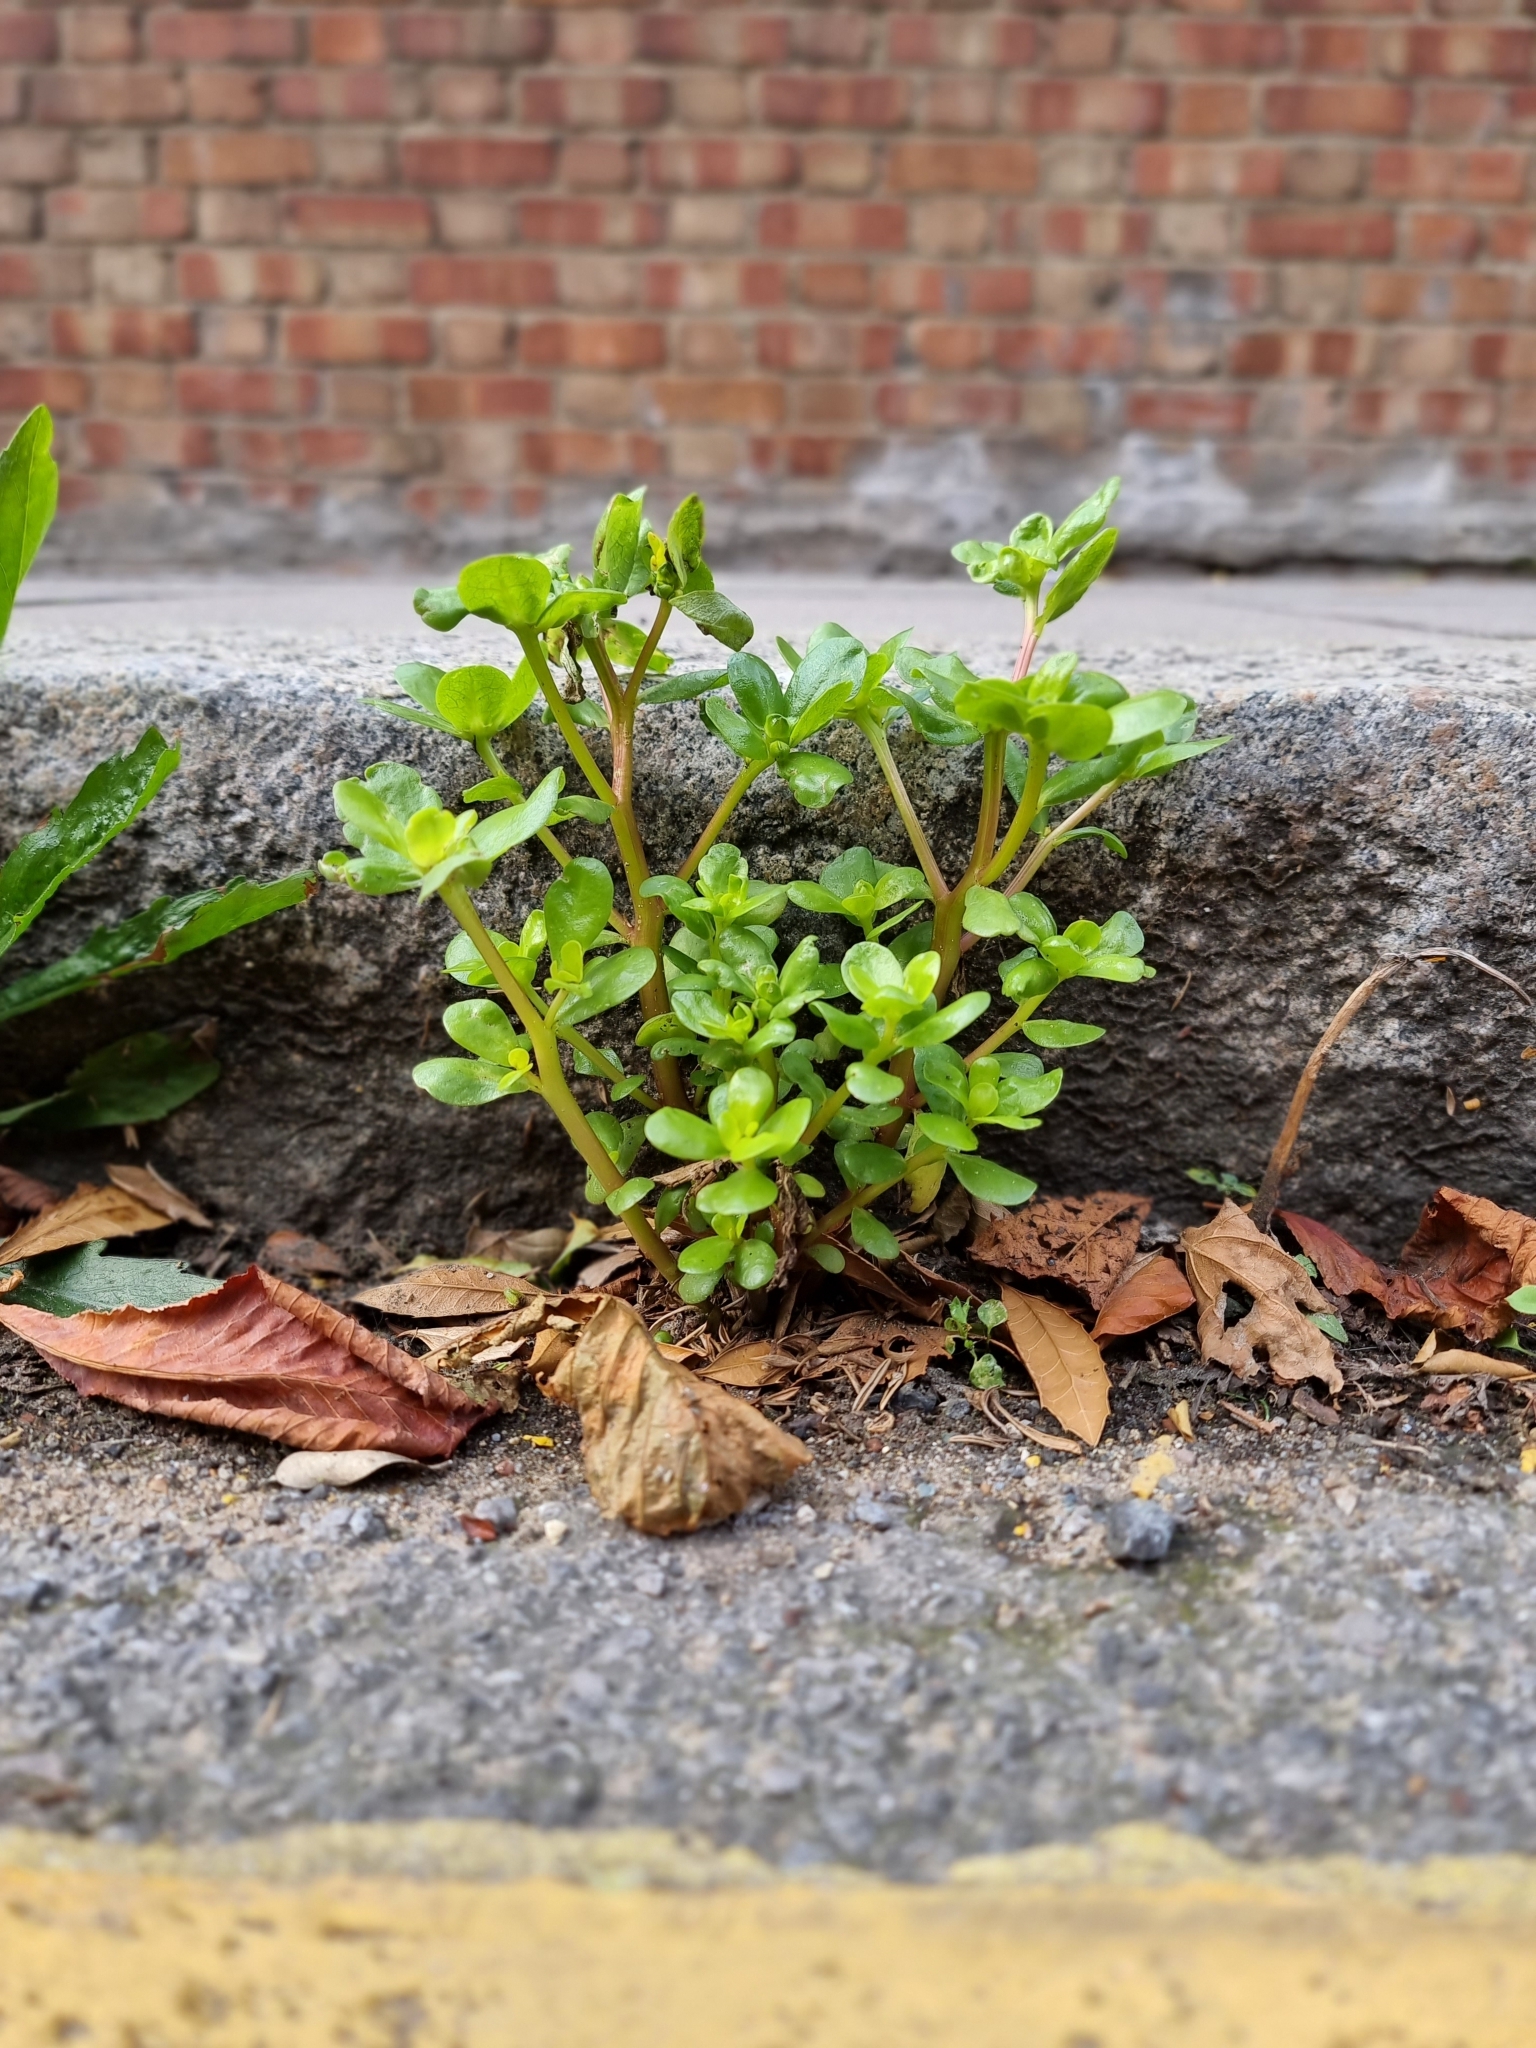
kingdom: Plantae
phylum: Tracheophyta
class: Magnoliopsida
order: Caryophyllales
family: Portulacaceae
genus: Portulaca
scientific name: Portulaca oleracea
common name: Common purslane
